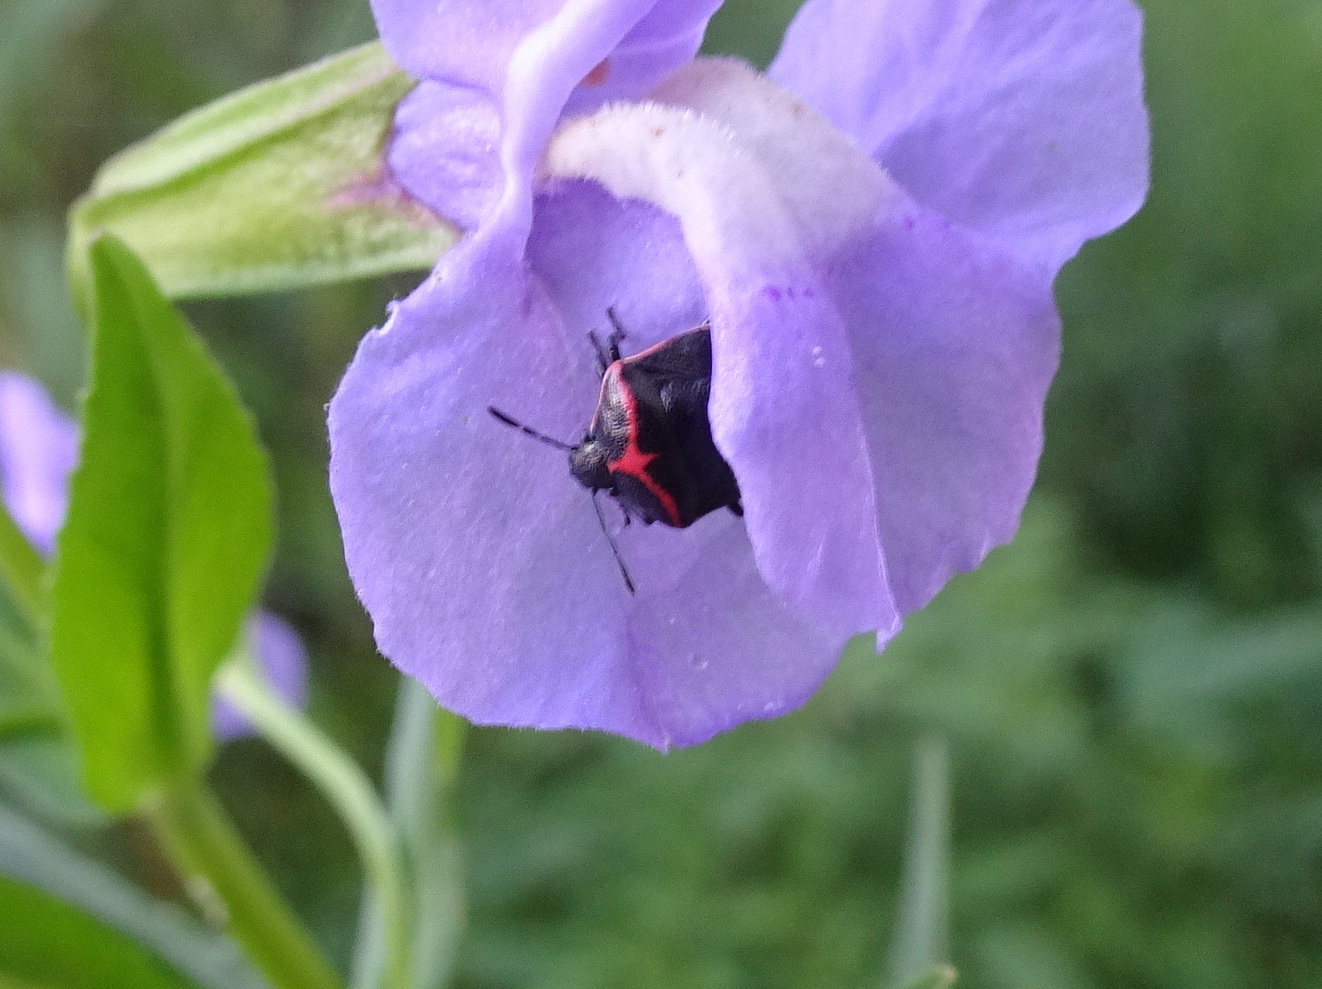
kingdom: Animalia
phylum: Arthropoda
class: Insecta
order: Hemiptera
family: Pentatomidae
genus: Cosmopepla
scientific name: Cosmopepla lintneriana
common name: Twice-stabbed stink bug
